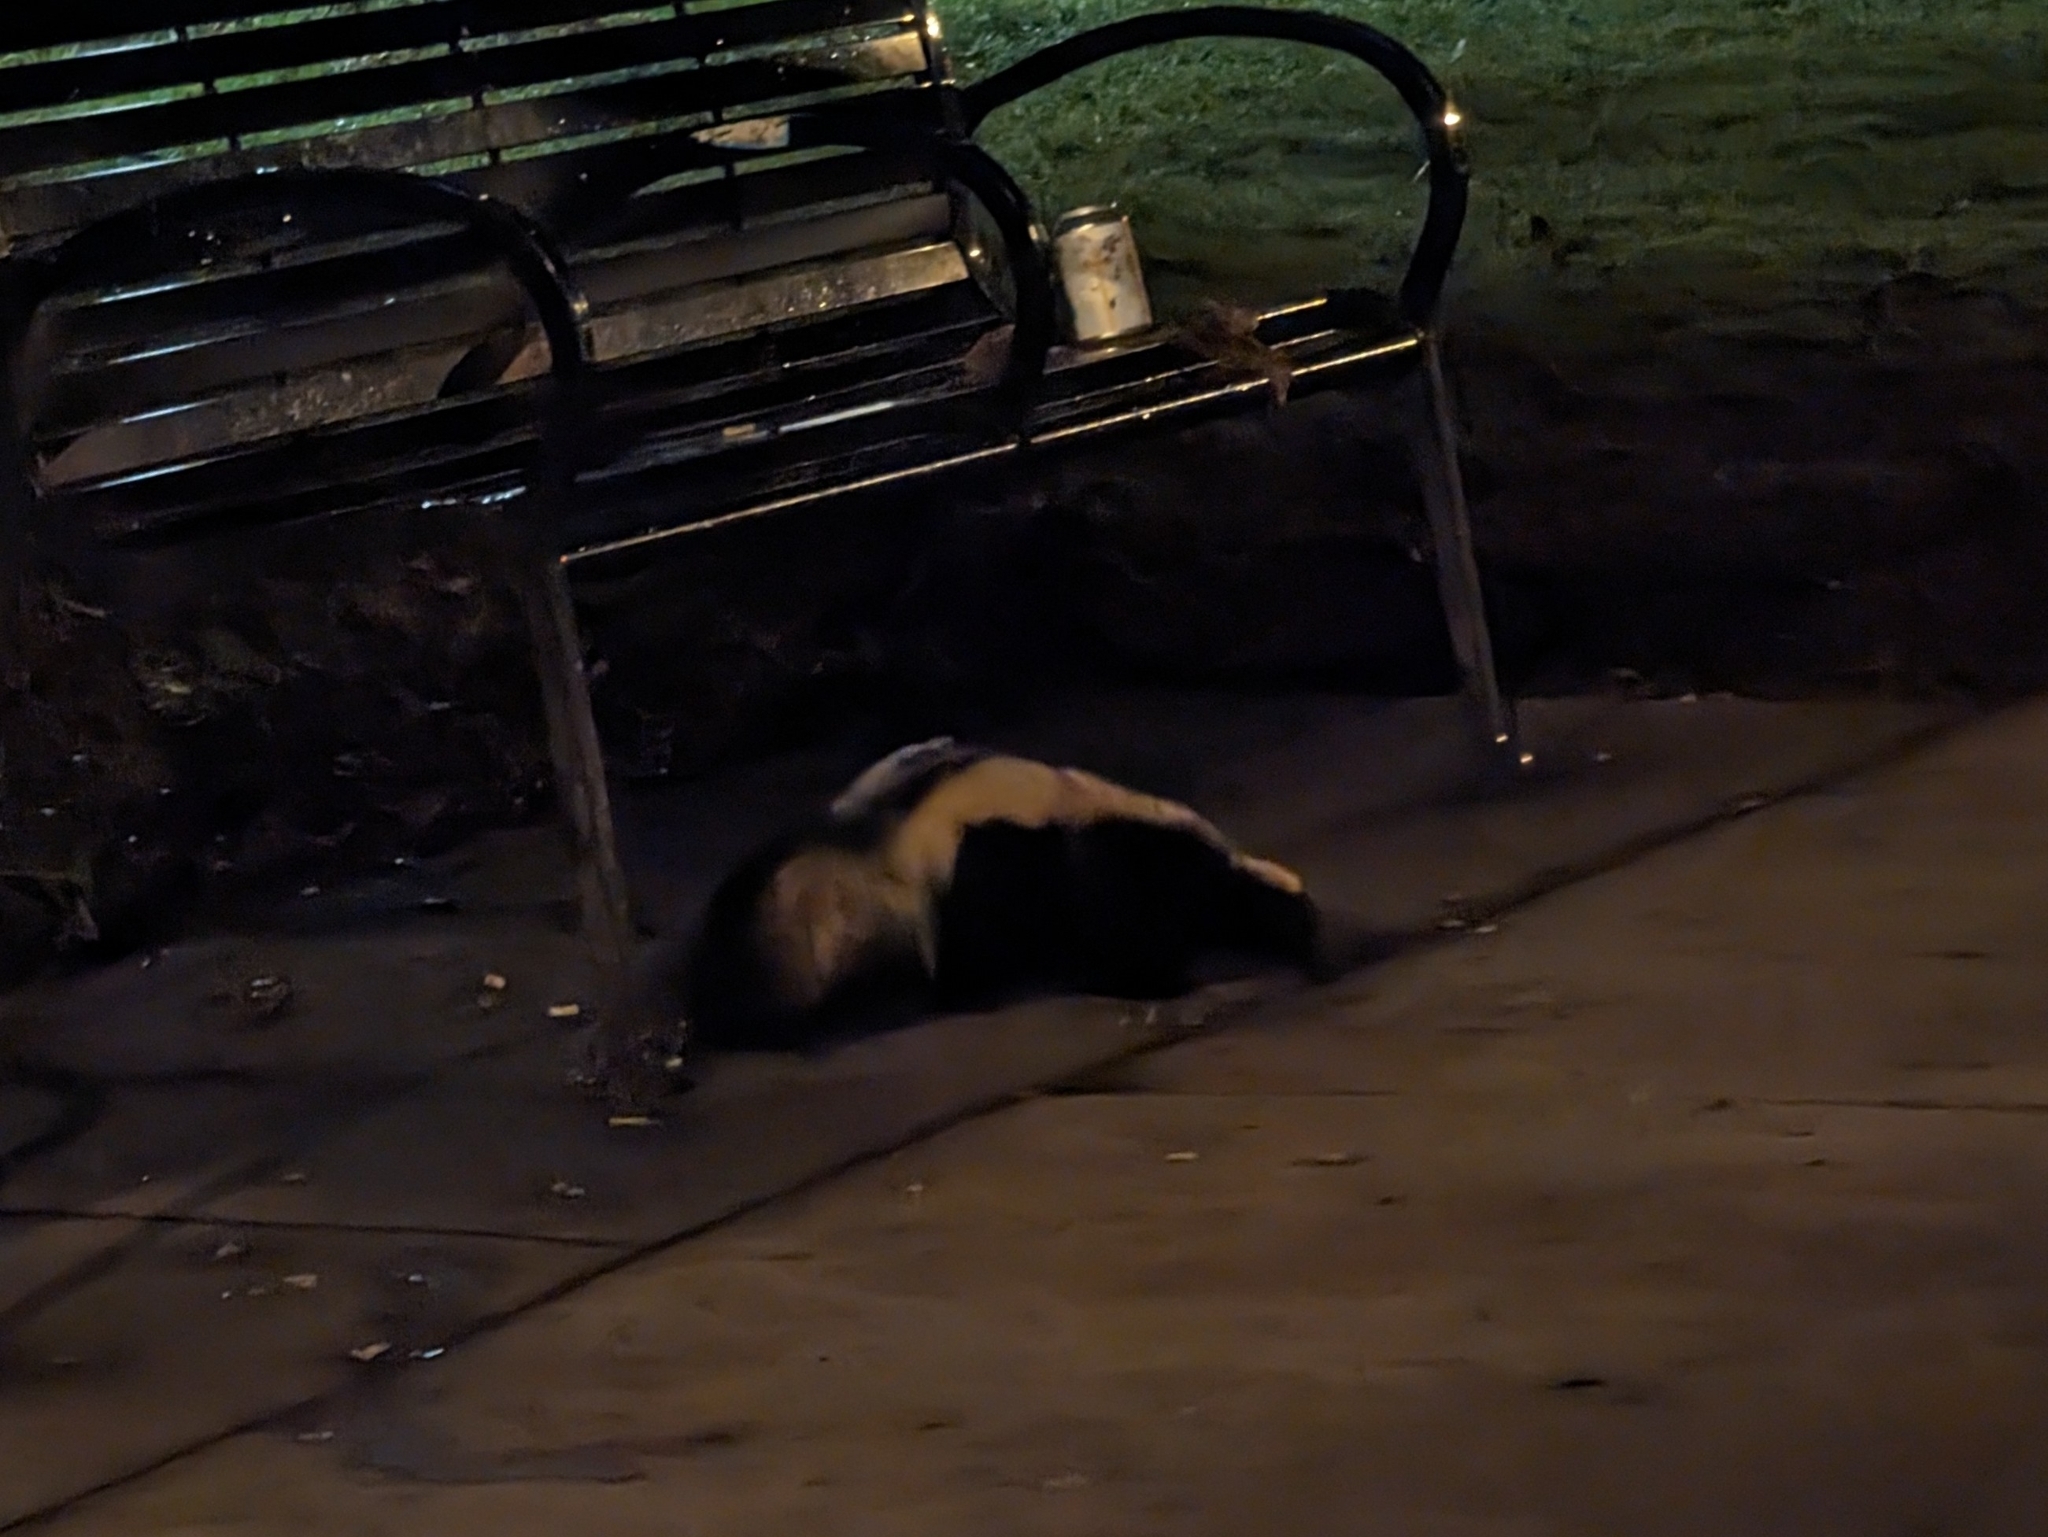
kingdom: Animalia
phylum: Chordata
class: Mammalia
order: Carnivora
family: Mephitidae
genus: Mephitis
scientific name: Mephitis mephitis
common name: Striped skunk
